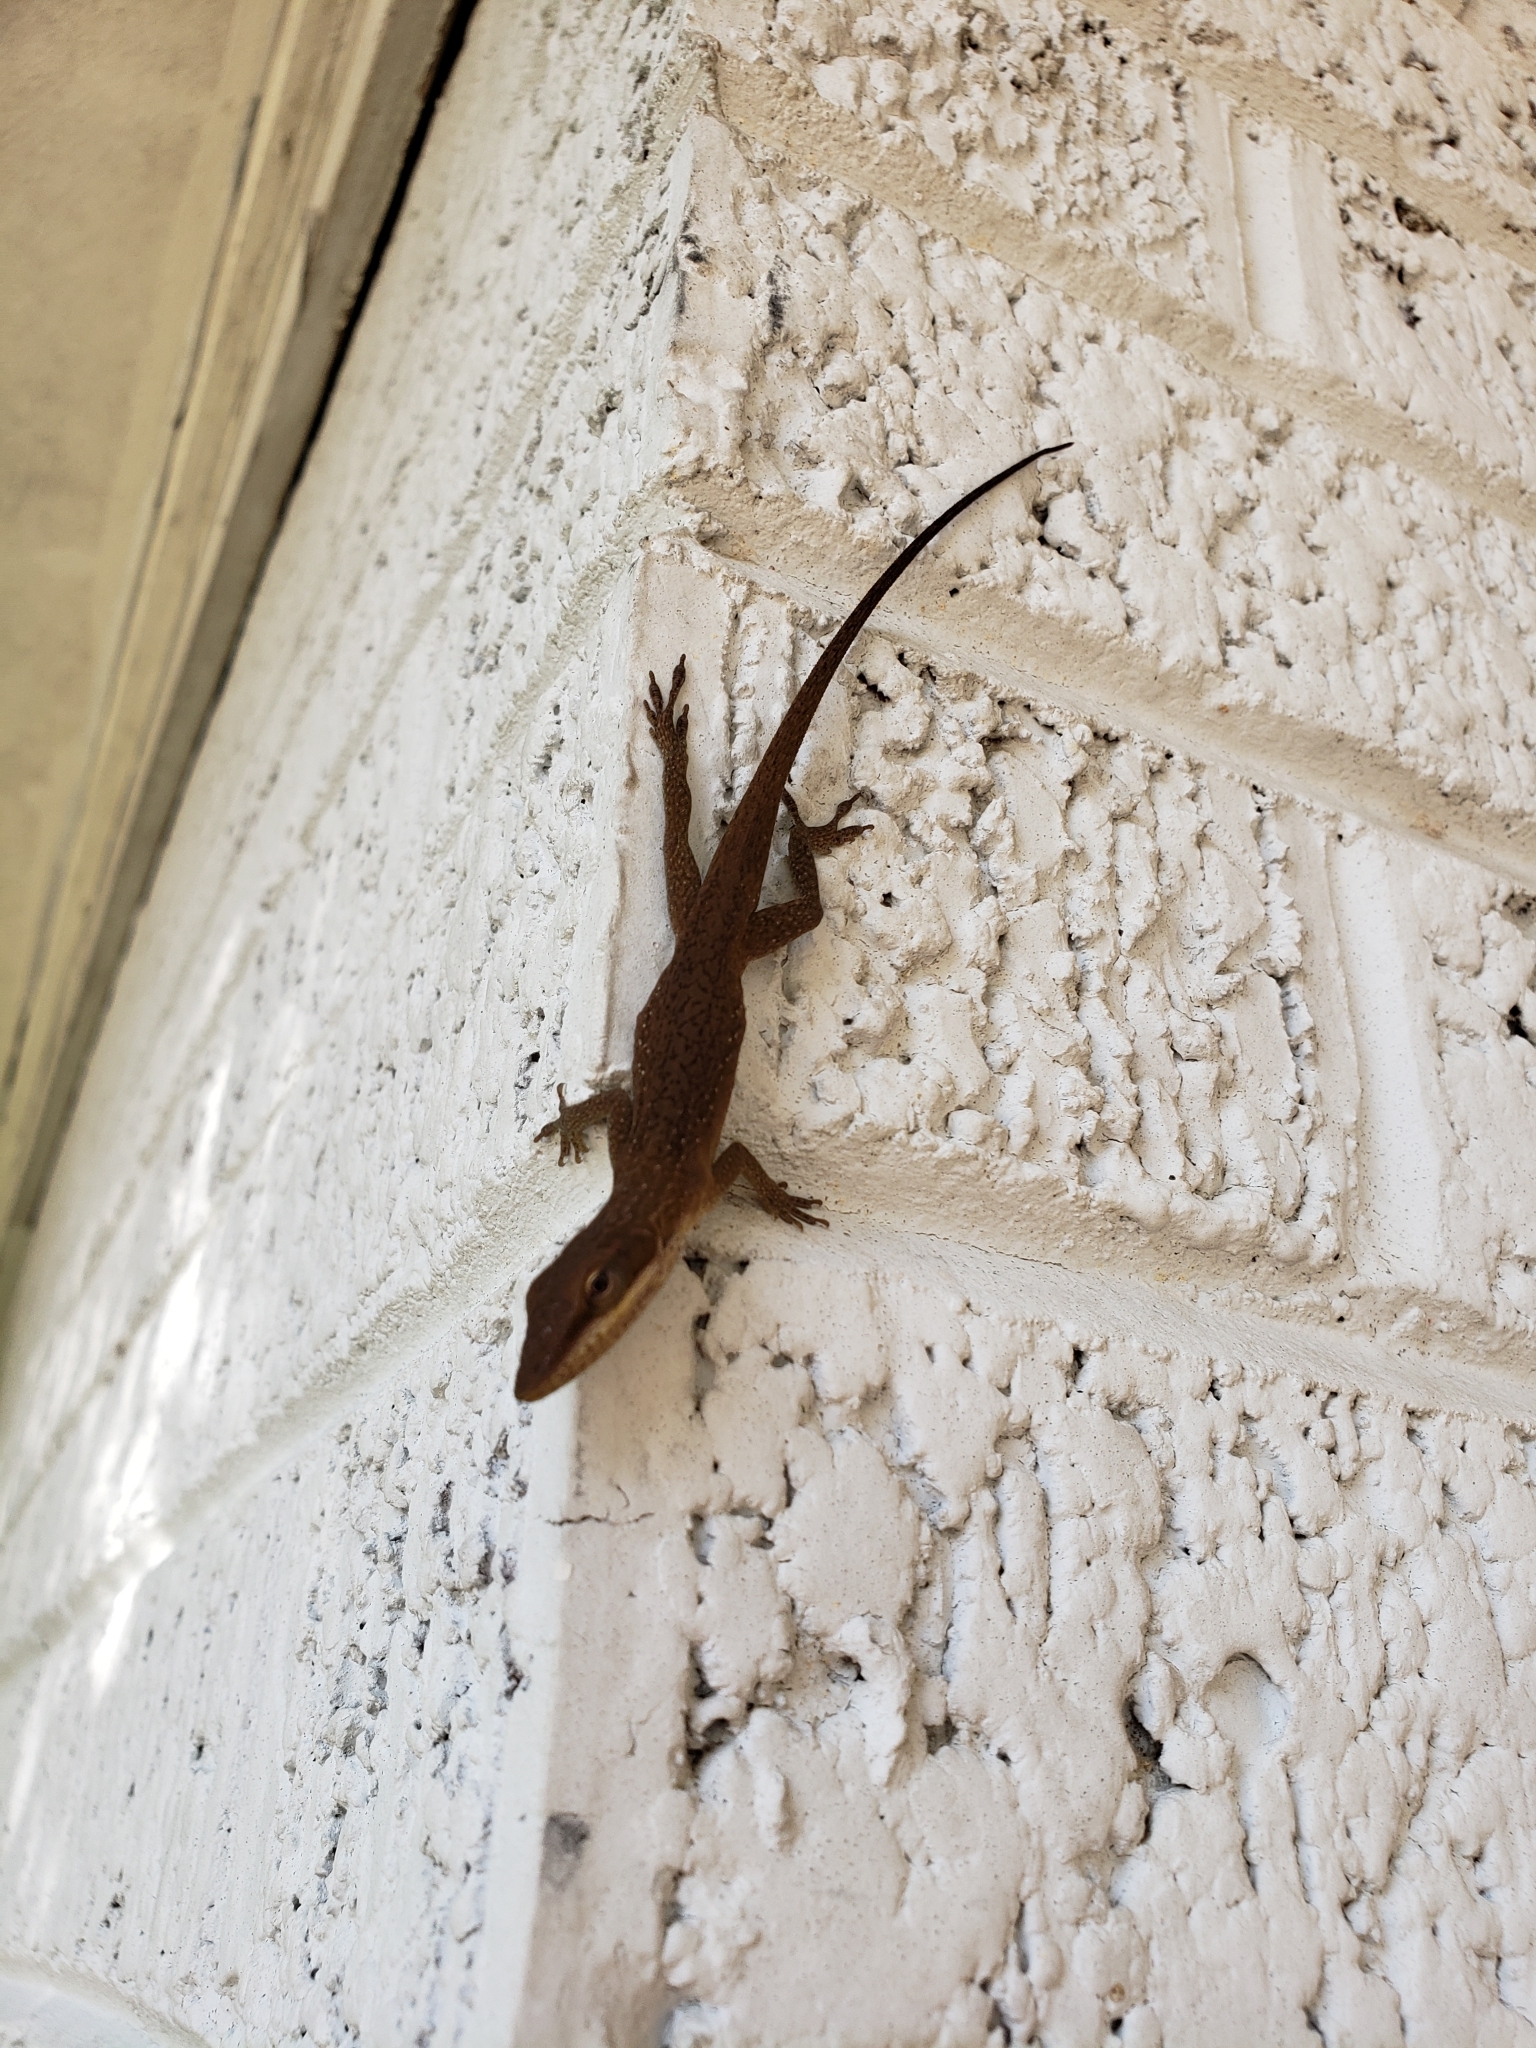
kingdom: Animalia
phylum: Chordata
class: Squamata
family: Dactyloidae
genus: Anolis
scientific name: Anolis carolinensis
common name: Green anole
